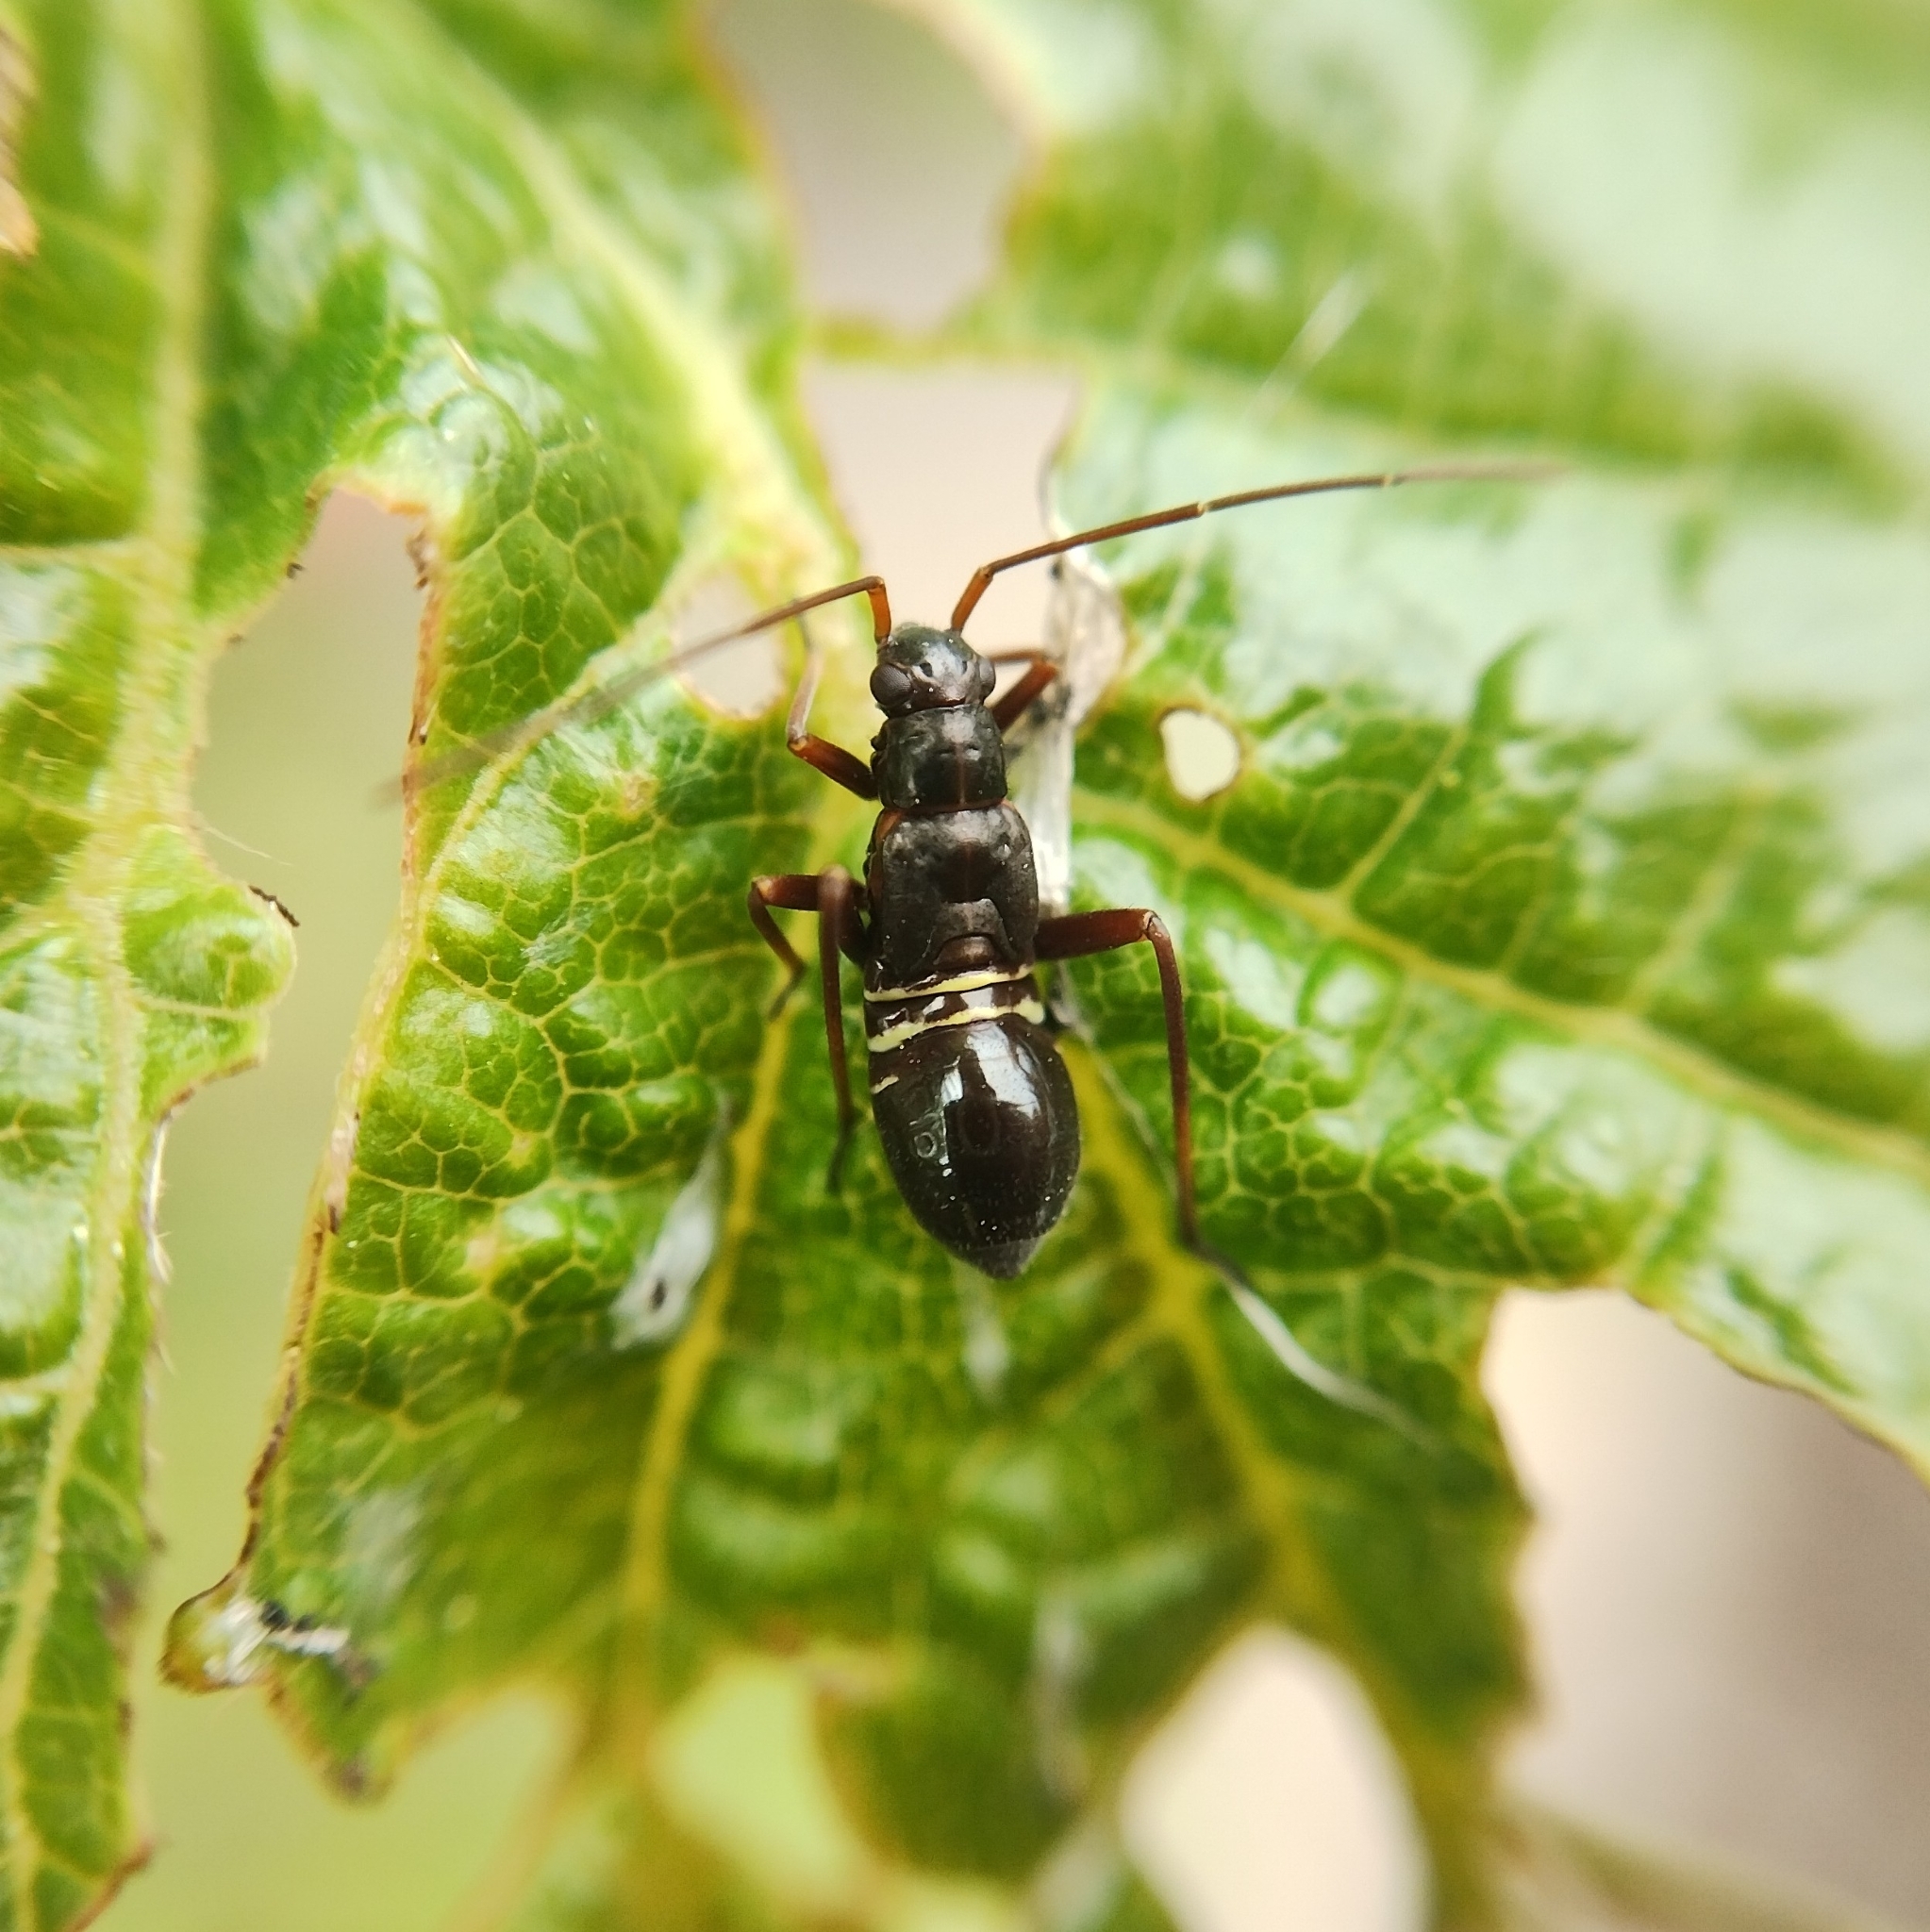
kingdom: Animalia
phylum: Arthropoda
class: Insecta
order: Hemiptera
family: Miridae
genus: Miris
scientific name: Miris striatus
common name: Fine streaked bugkin
